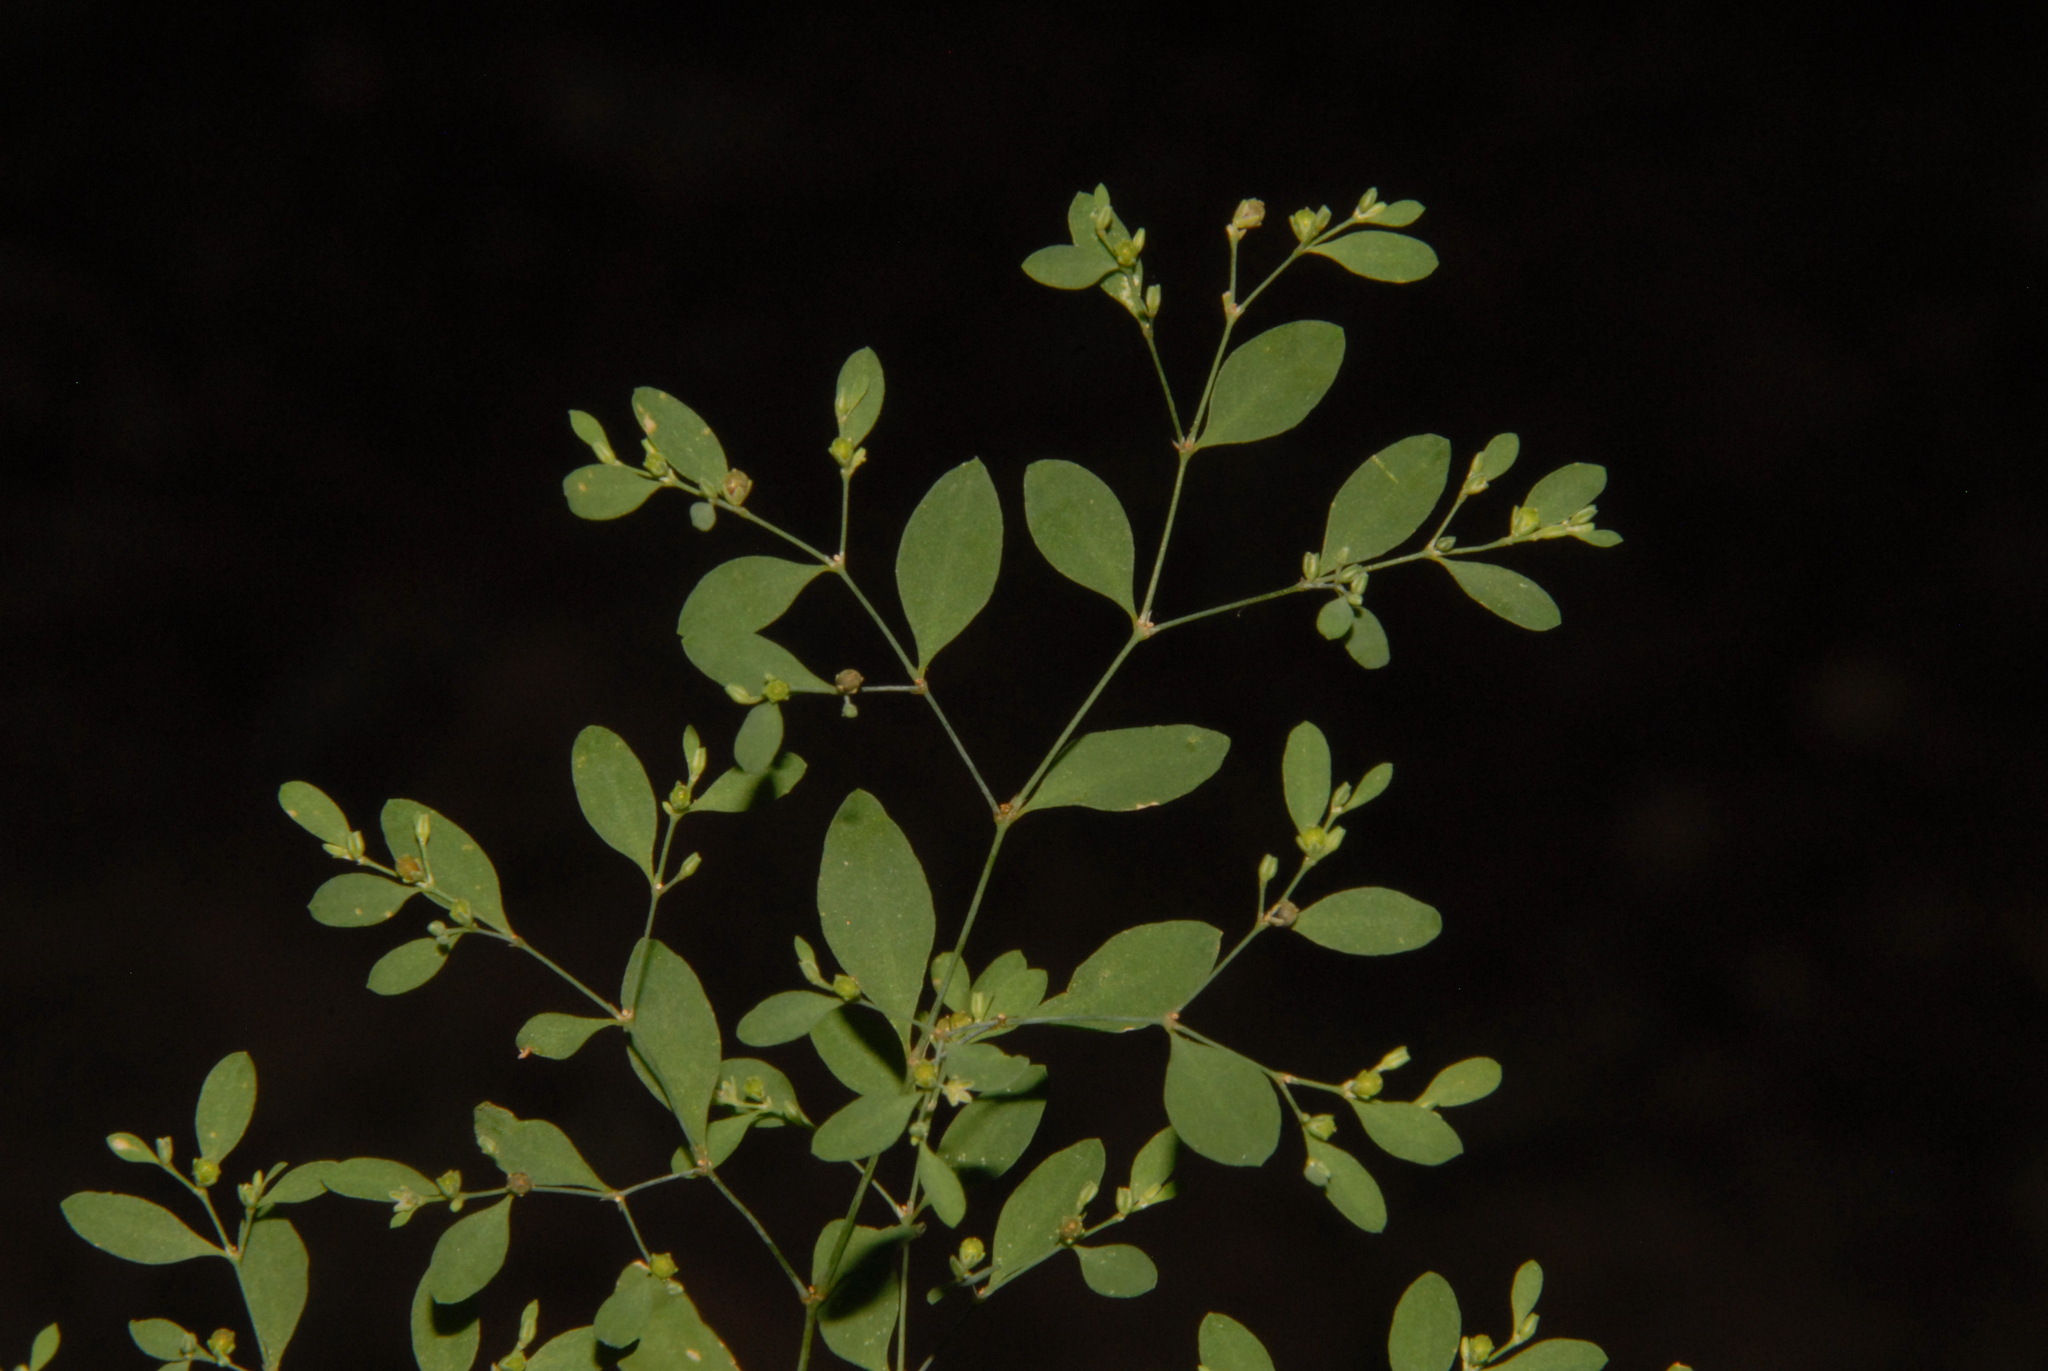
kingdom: Plantae
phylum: Tracheophyta
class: Magnoliopsida
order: Caryophyllales
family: Caryophyllaceae
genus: Paronychia
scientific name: Paronychia canadensis
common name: Canada forked nailwort
